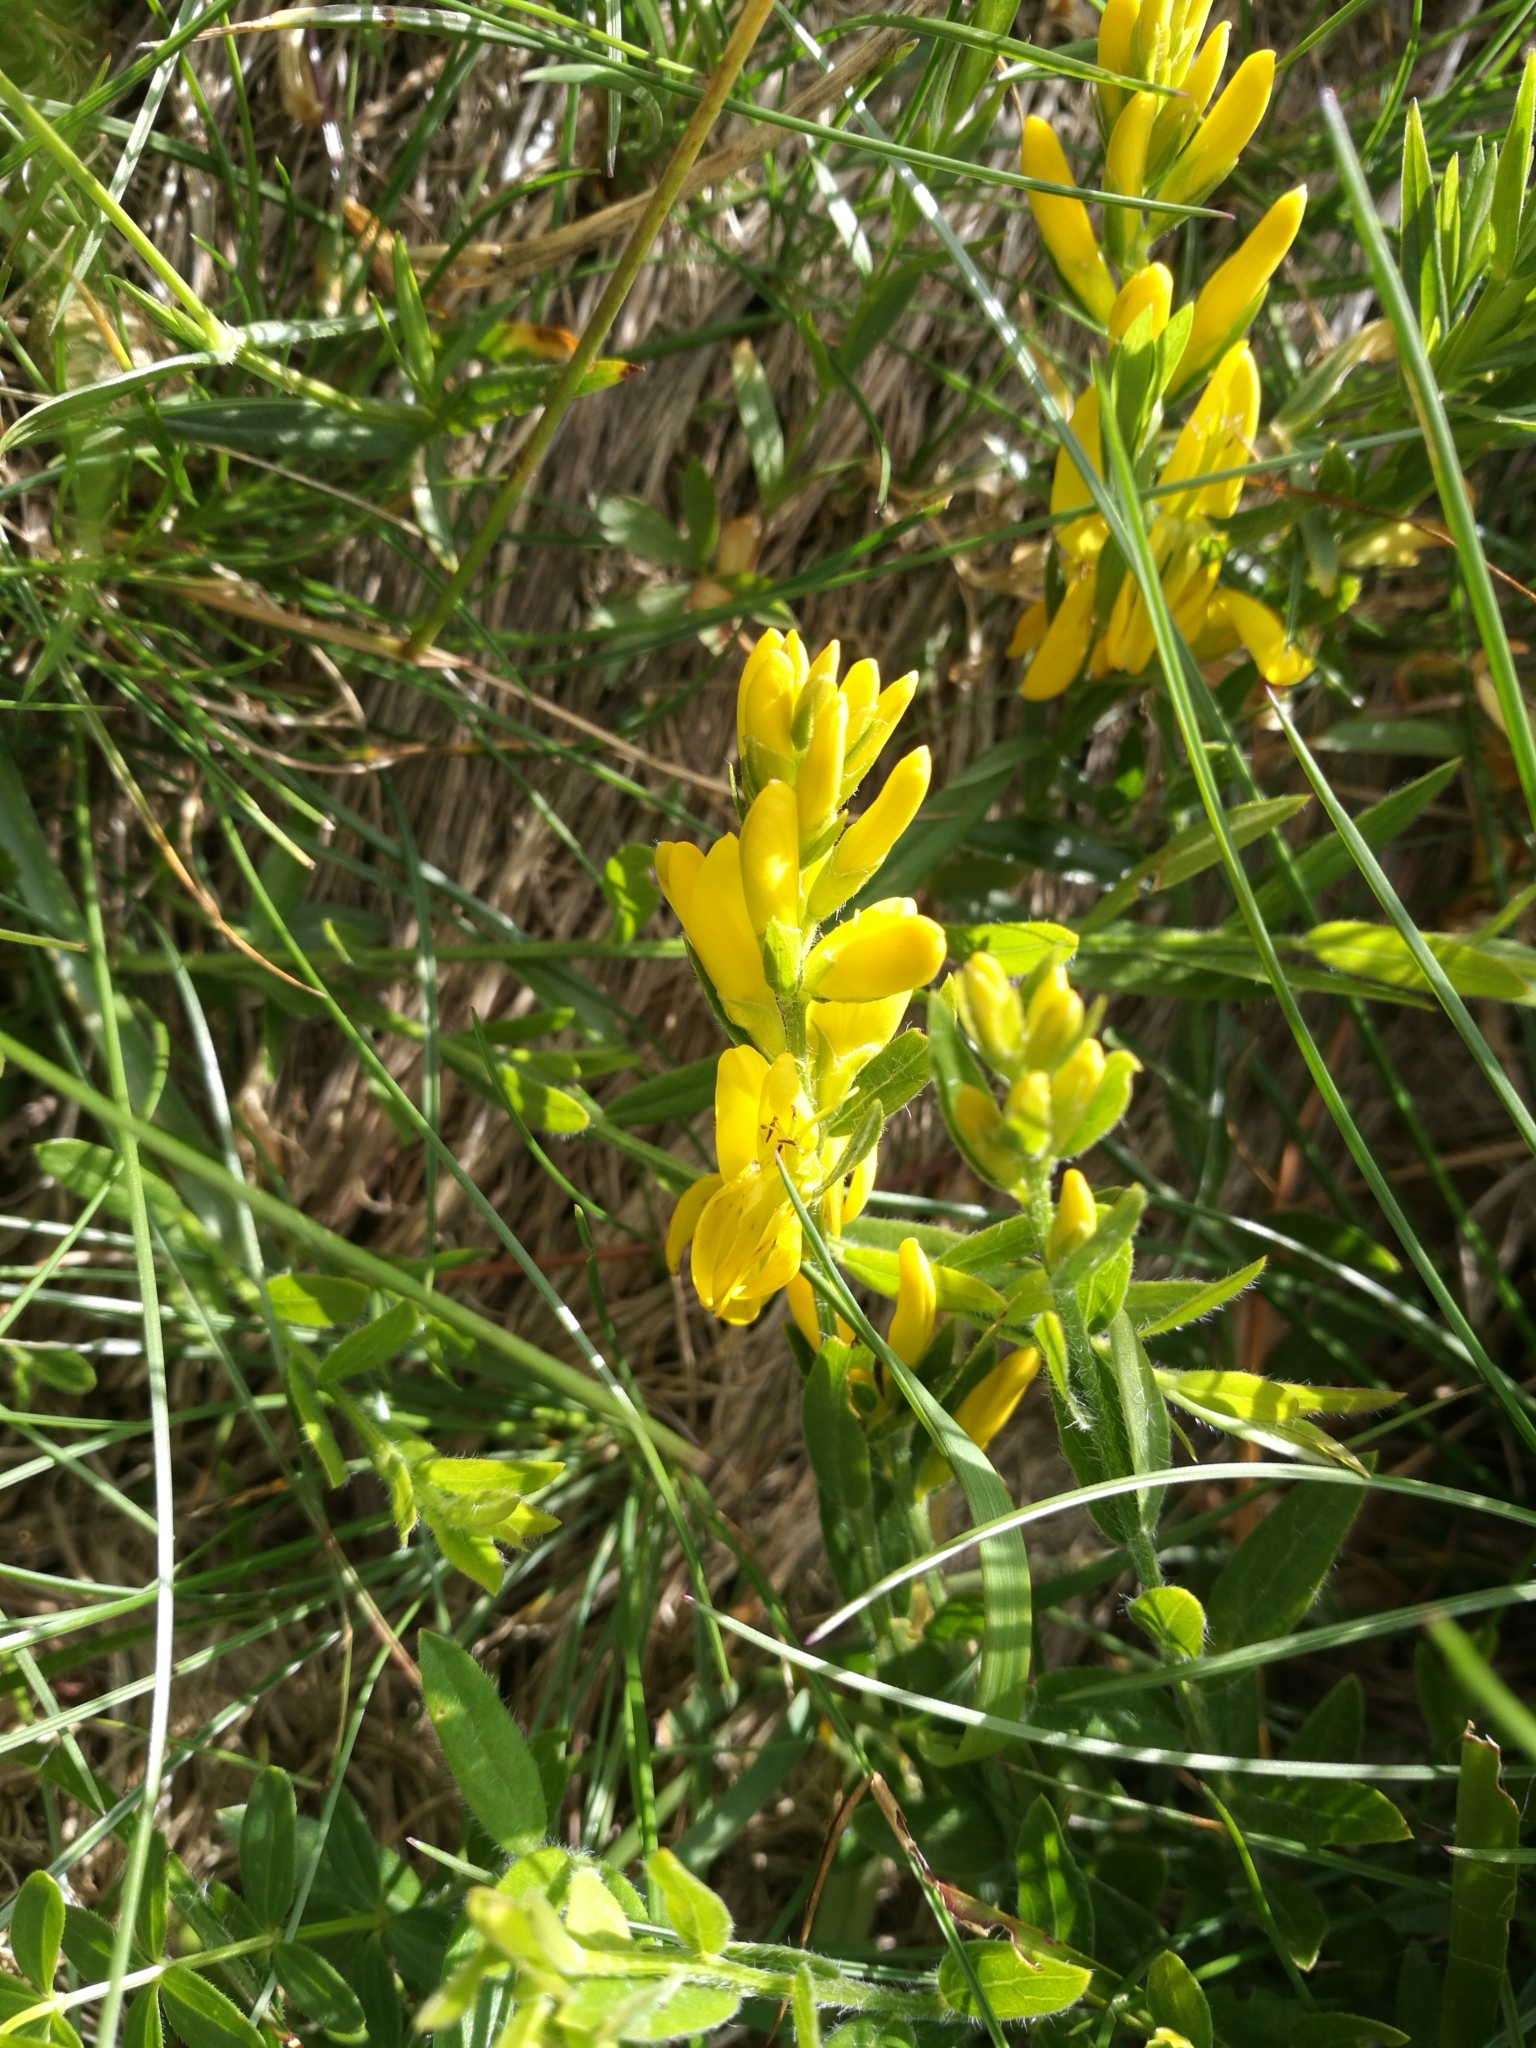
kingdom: Plantae
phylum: Tracheophyta
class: Magnoliopsida
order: Fabales
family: Fabaceae
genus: Genista
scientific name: Genista tinctoria
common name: Dyer's greenweed
